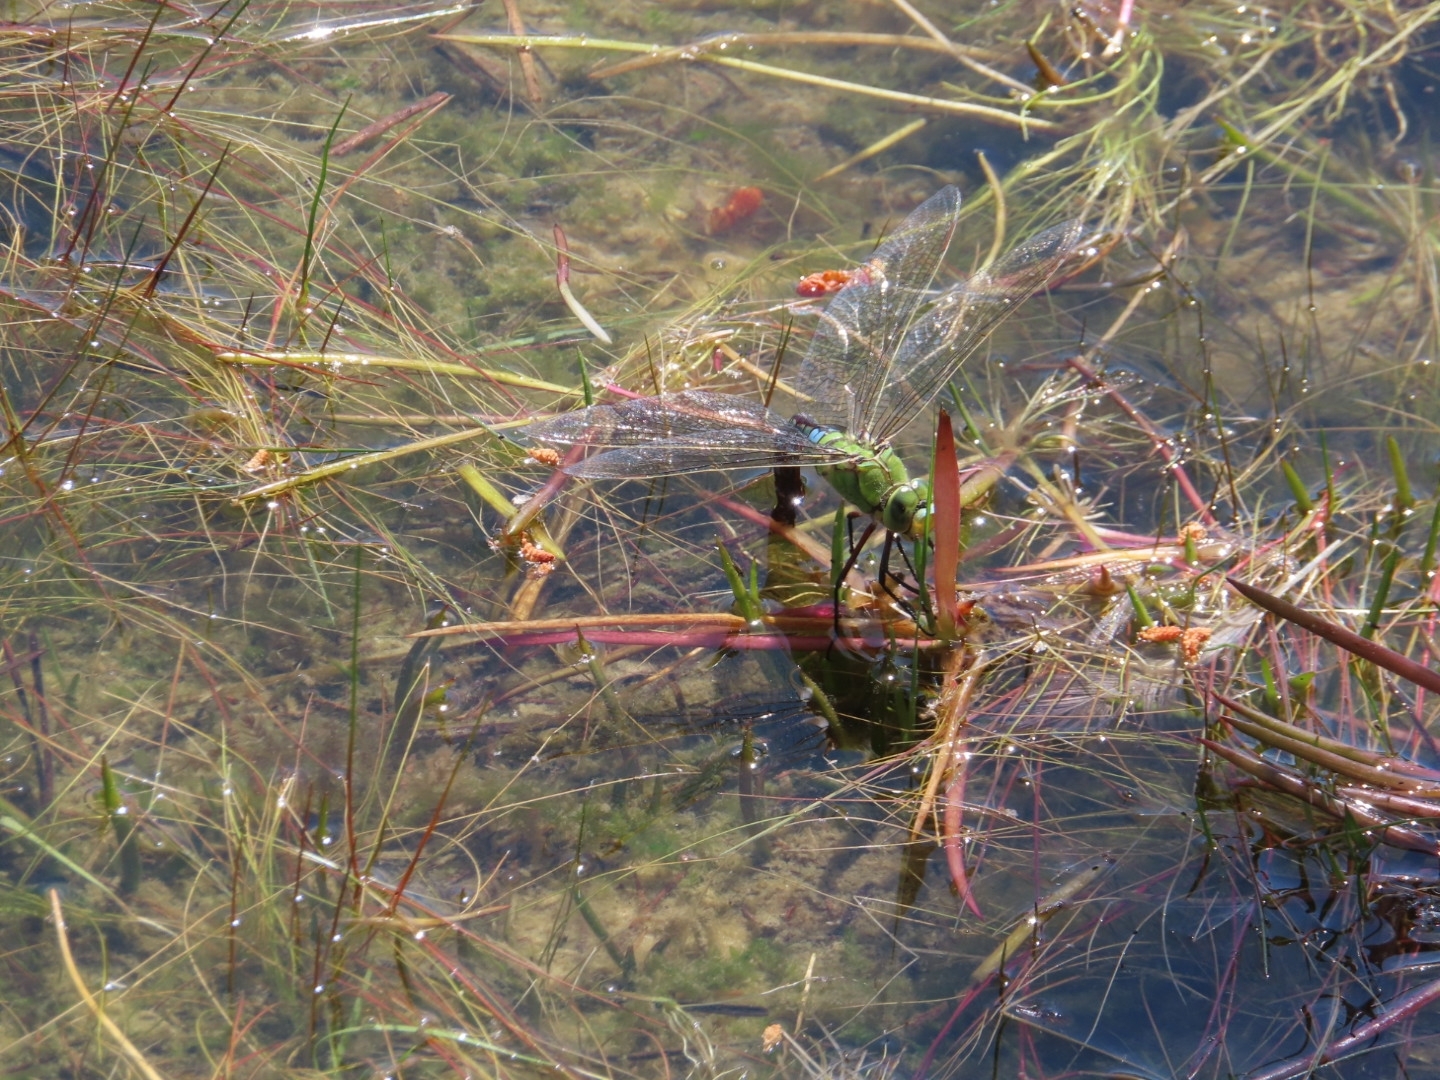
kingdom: Animalia
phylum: Arthropoda
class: Insecta
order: Odonata
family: Aeshnidae
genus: Anax
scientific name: Anax imperator
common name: Emperor dragonfly
